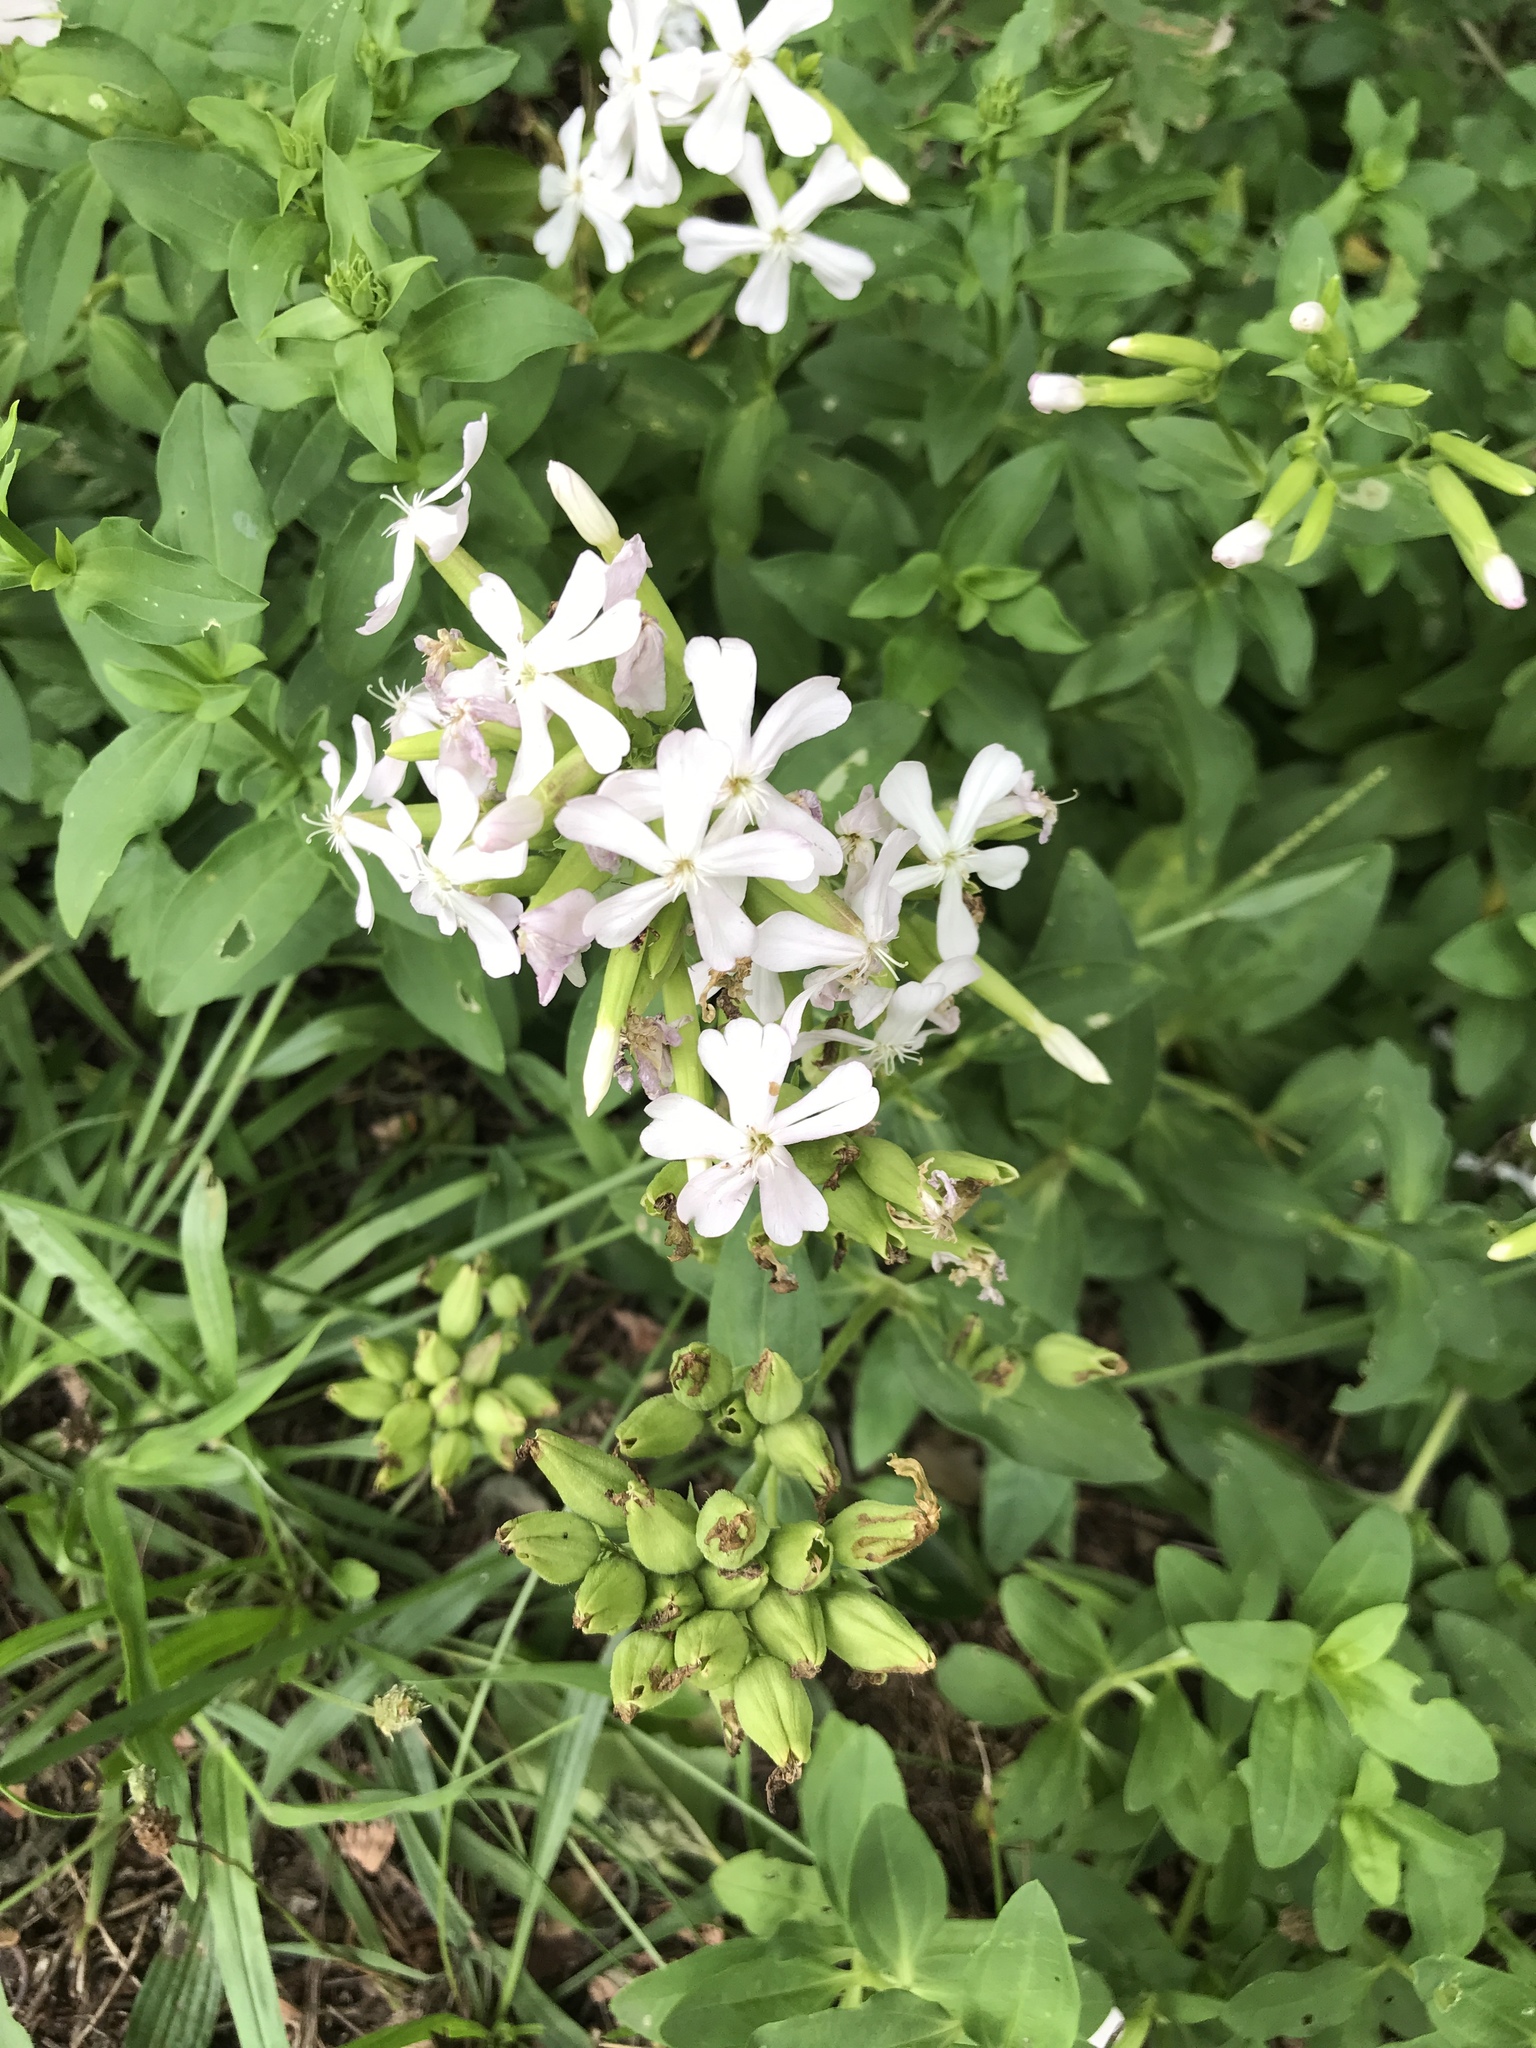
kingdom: Plantae
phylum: Tracheophyta
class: Magnoliopsida
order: Caryophyllales
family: Caryophyllaceae
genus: Saponaria
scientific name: Saponaria officinalis
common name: Soapwort
